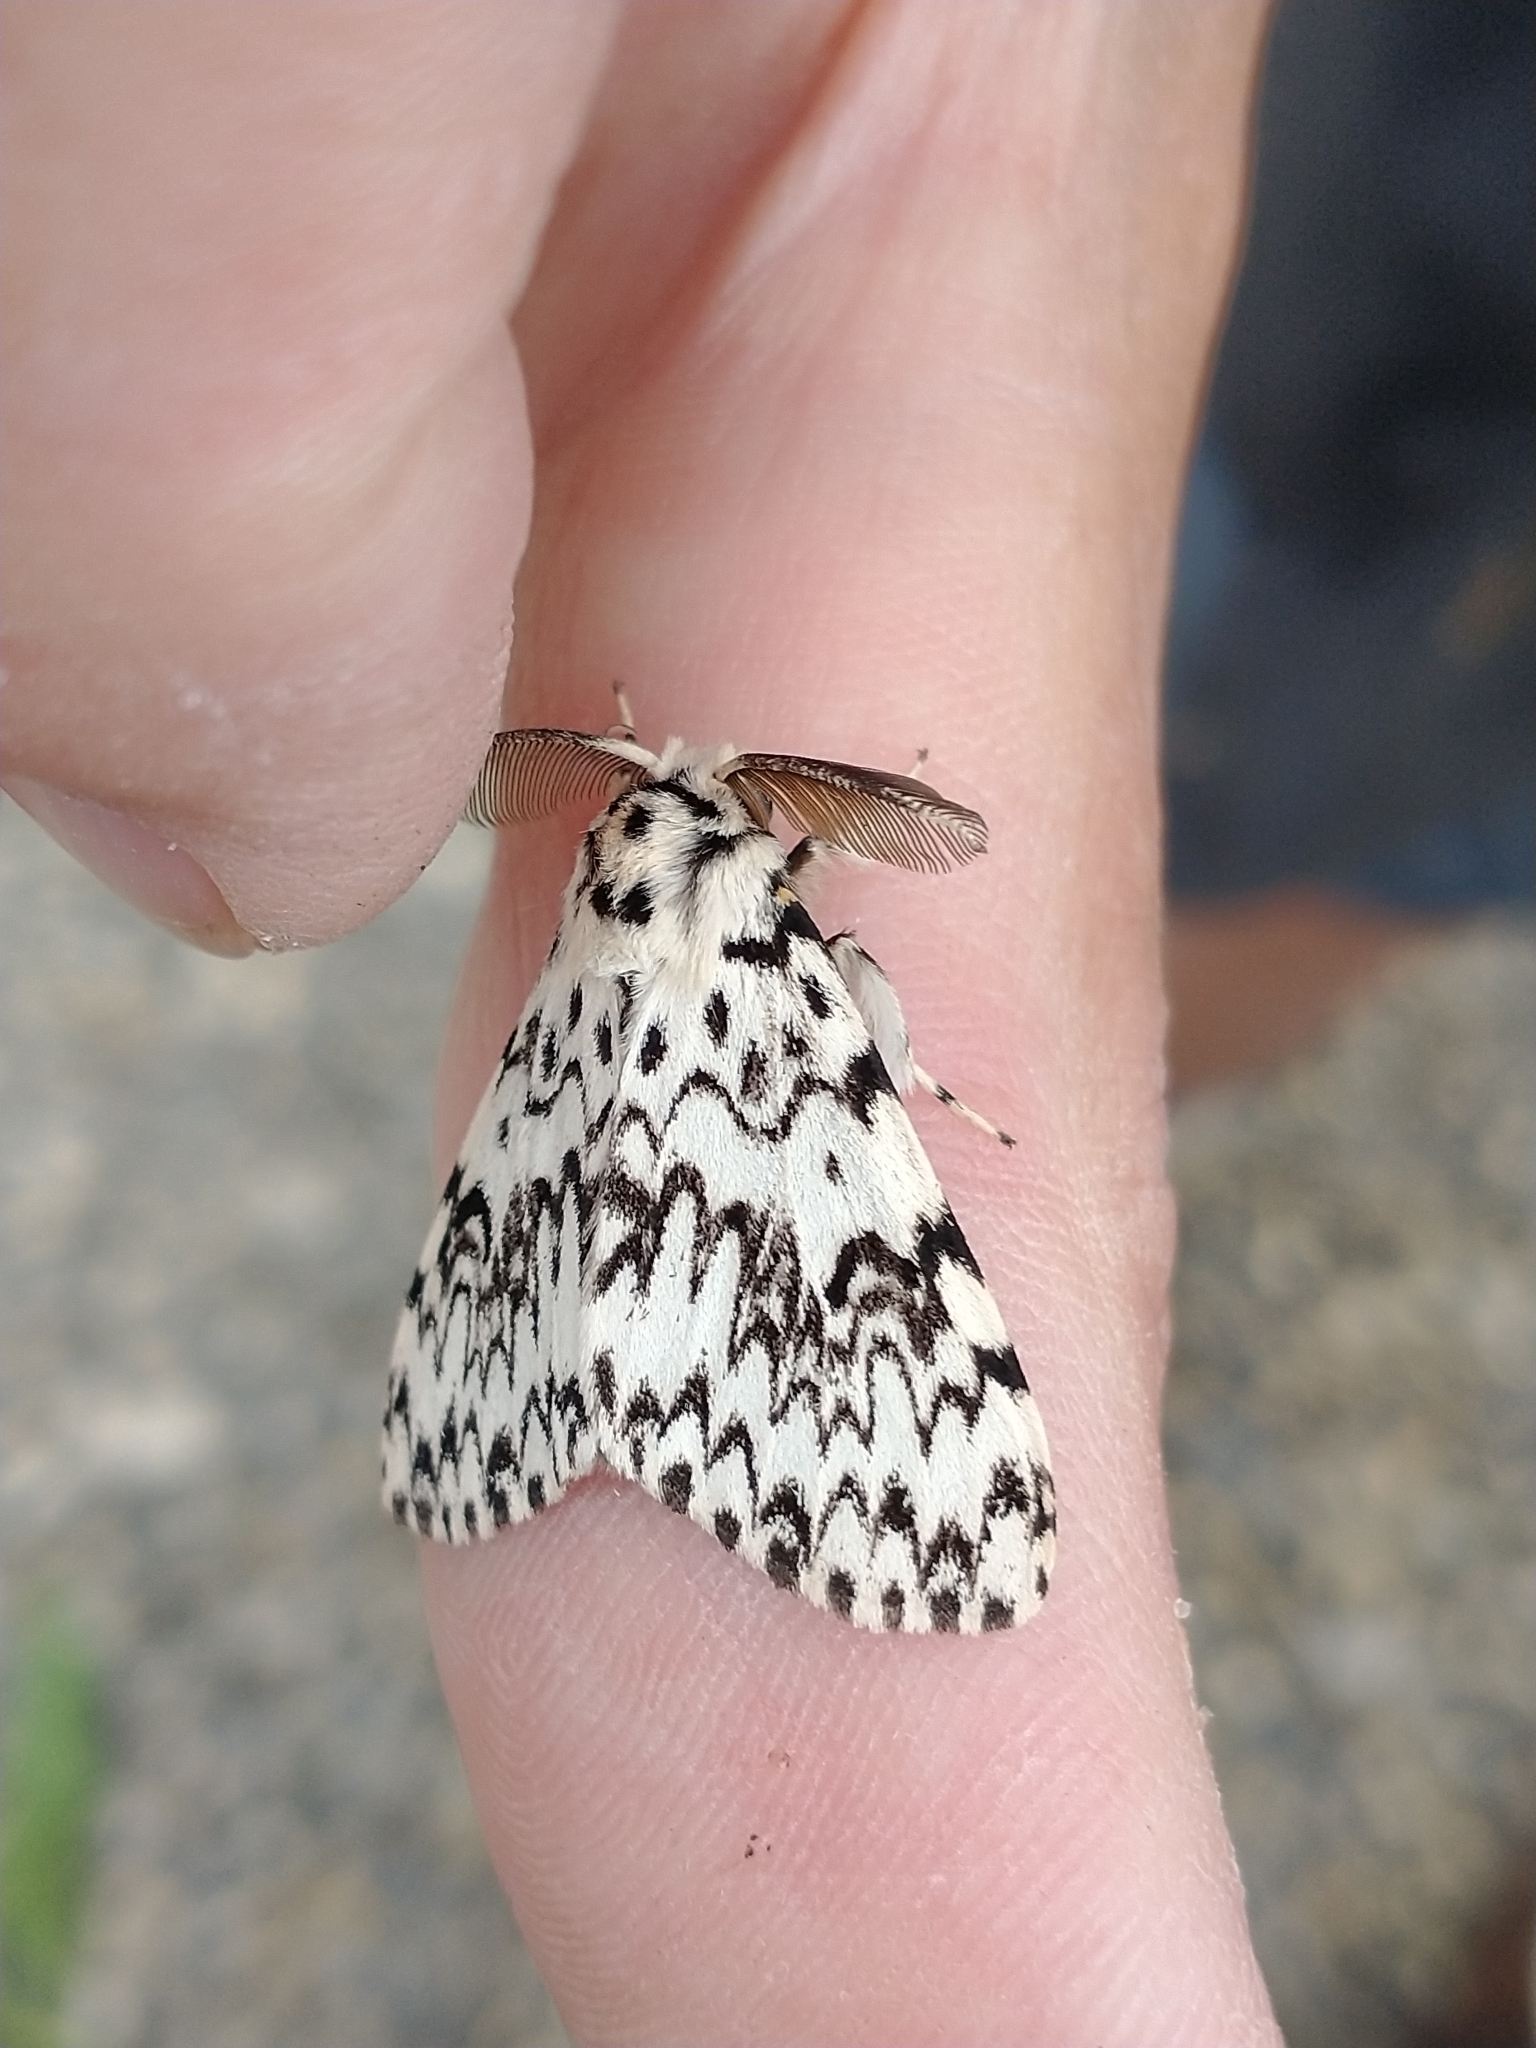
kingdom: Animalia
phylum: Arthropoda
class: Insecta
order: Lepidoptera
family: Erebidae
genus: Lymantria
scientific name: Lymantria monacha
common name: Black arches
